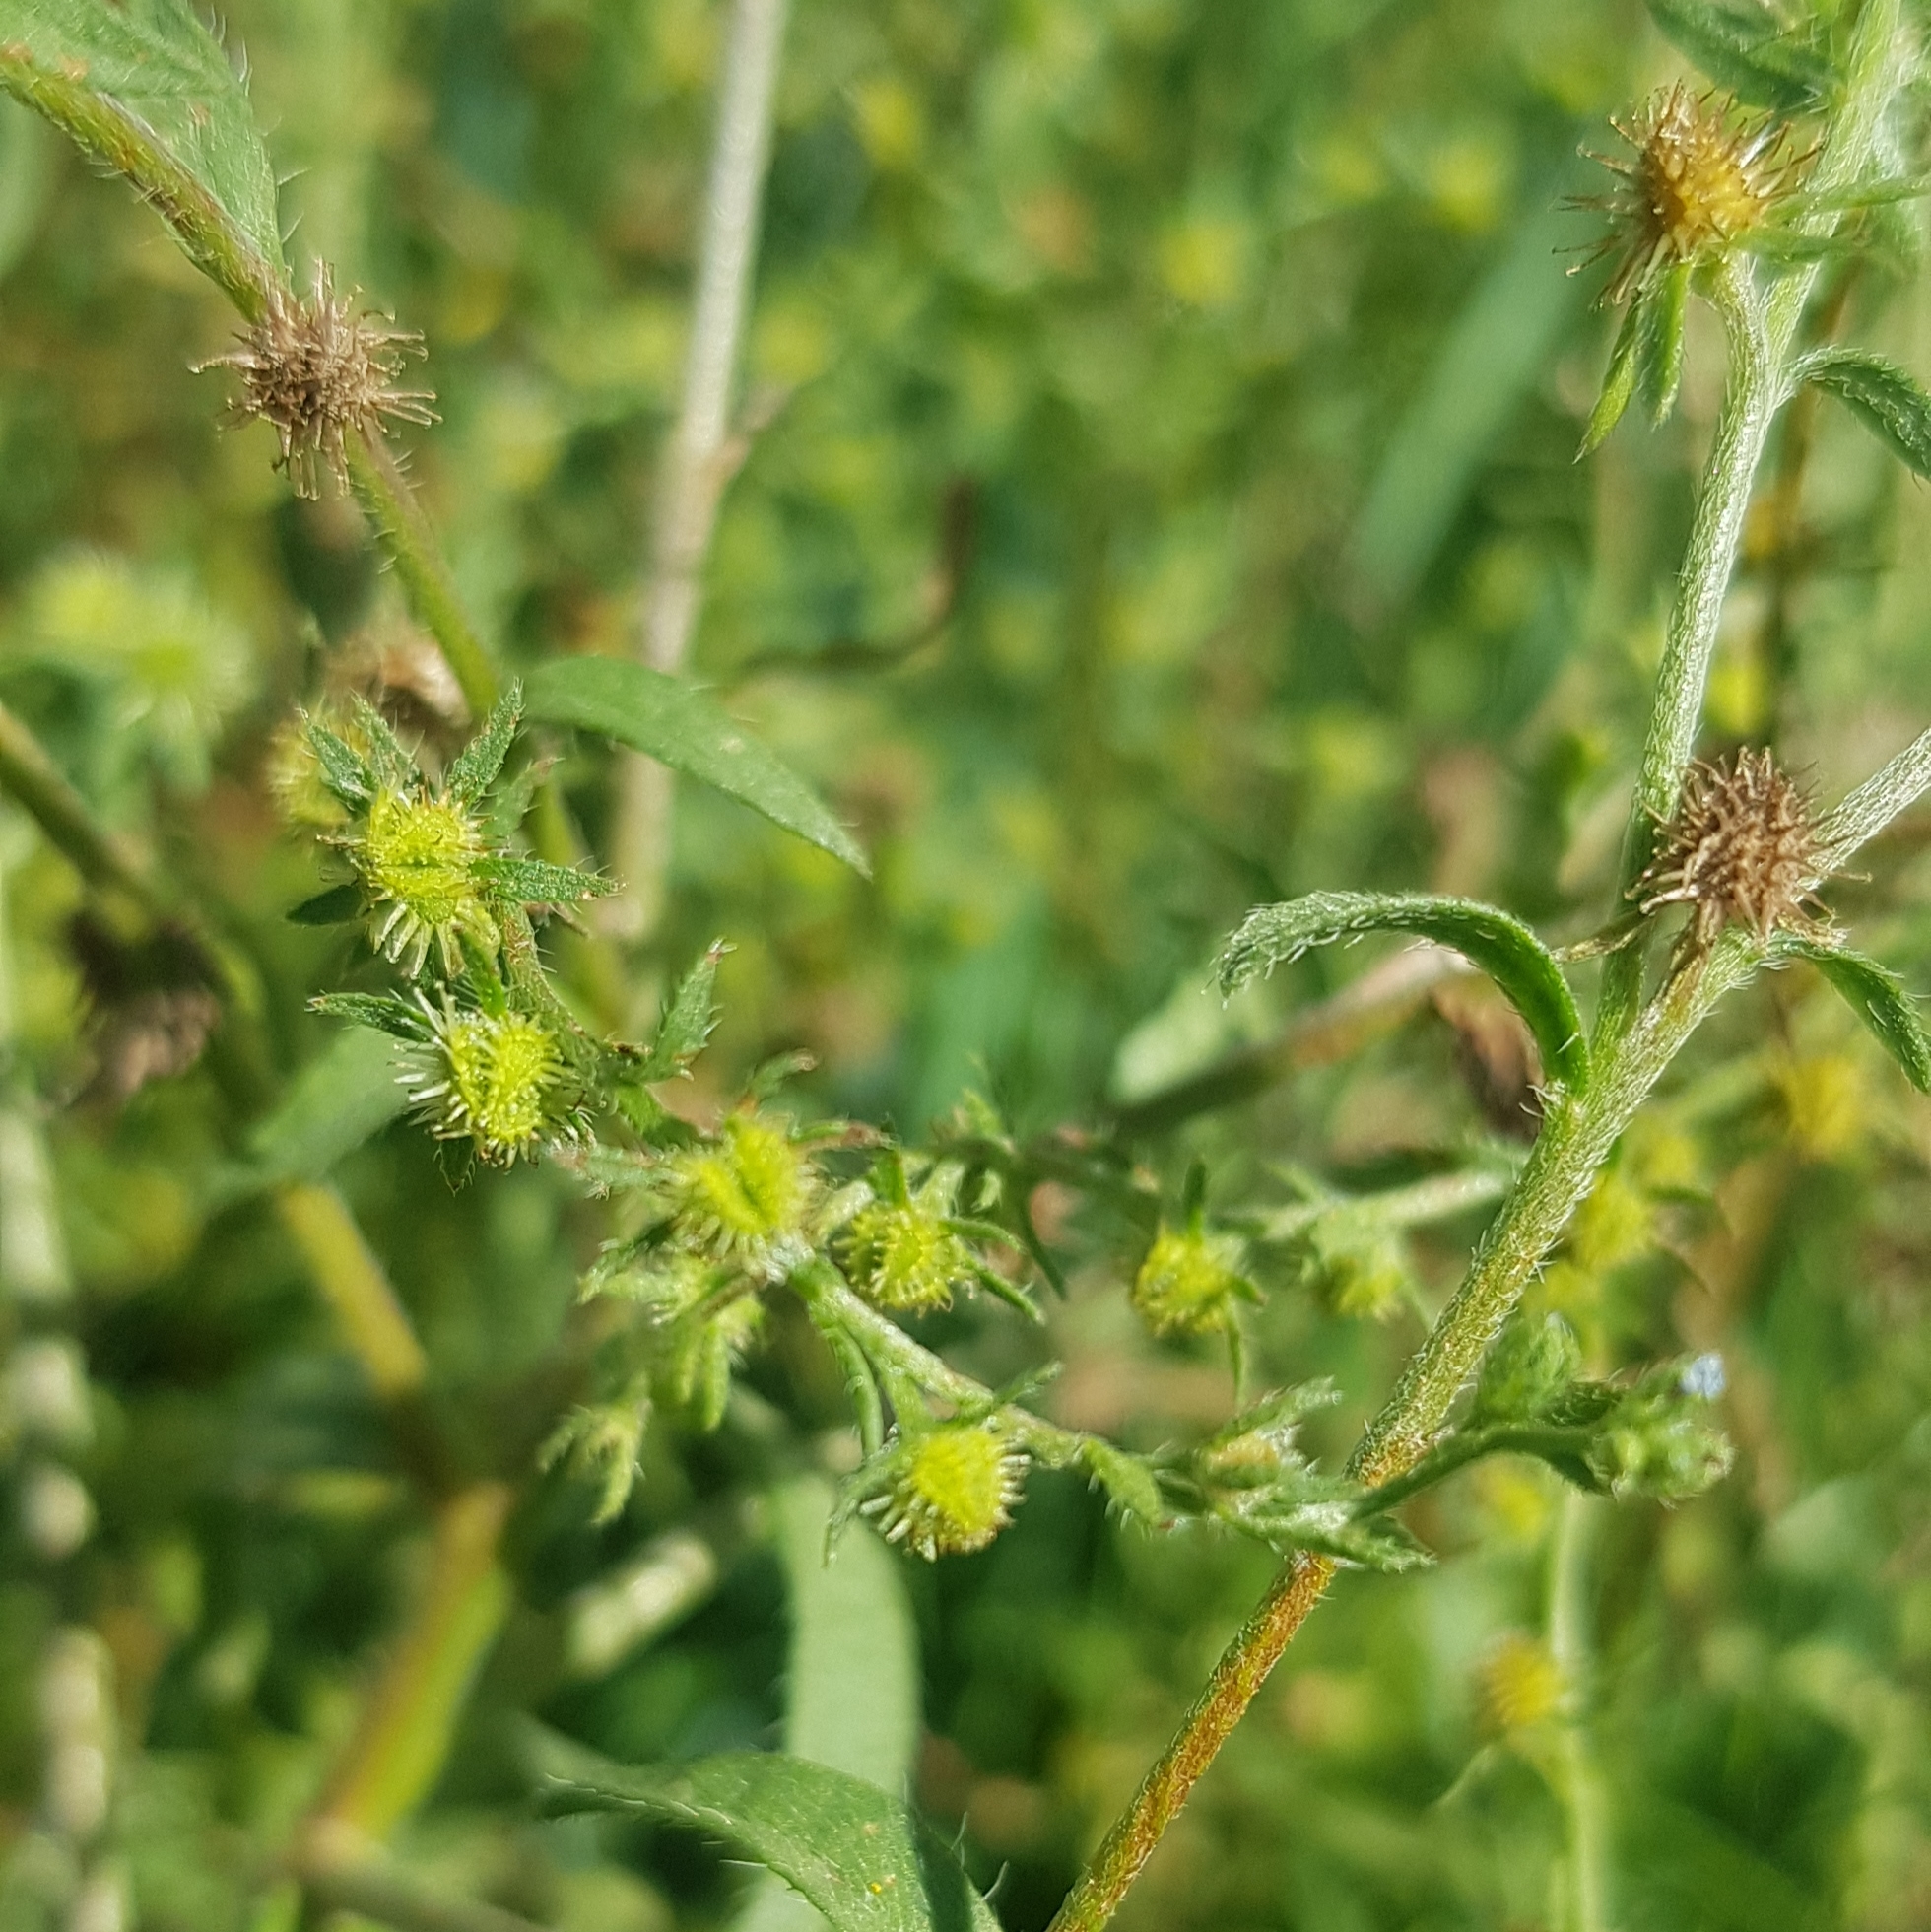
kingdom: Plantae
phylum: Tracheophyta
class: Magnoliopsida
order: Boraginales
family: Boraginaceae
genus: Lappula
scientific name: Lappula squarrosa
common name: European stickseed
